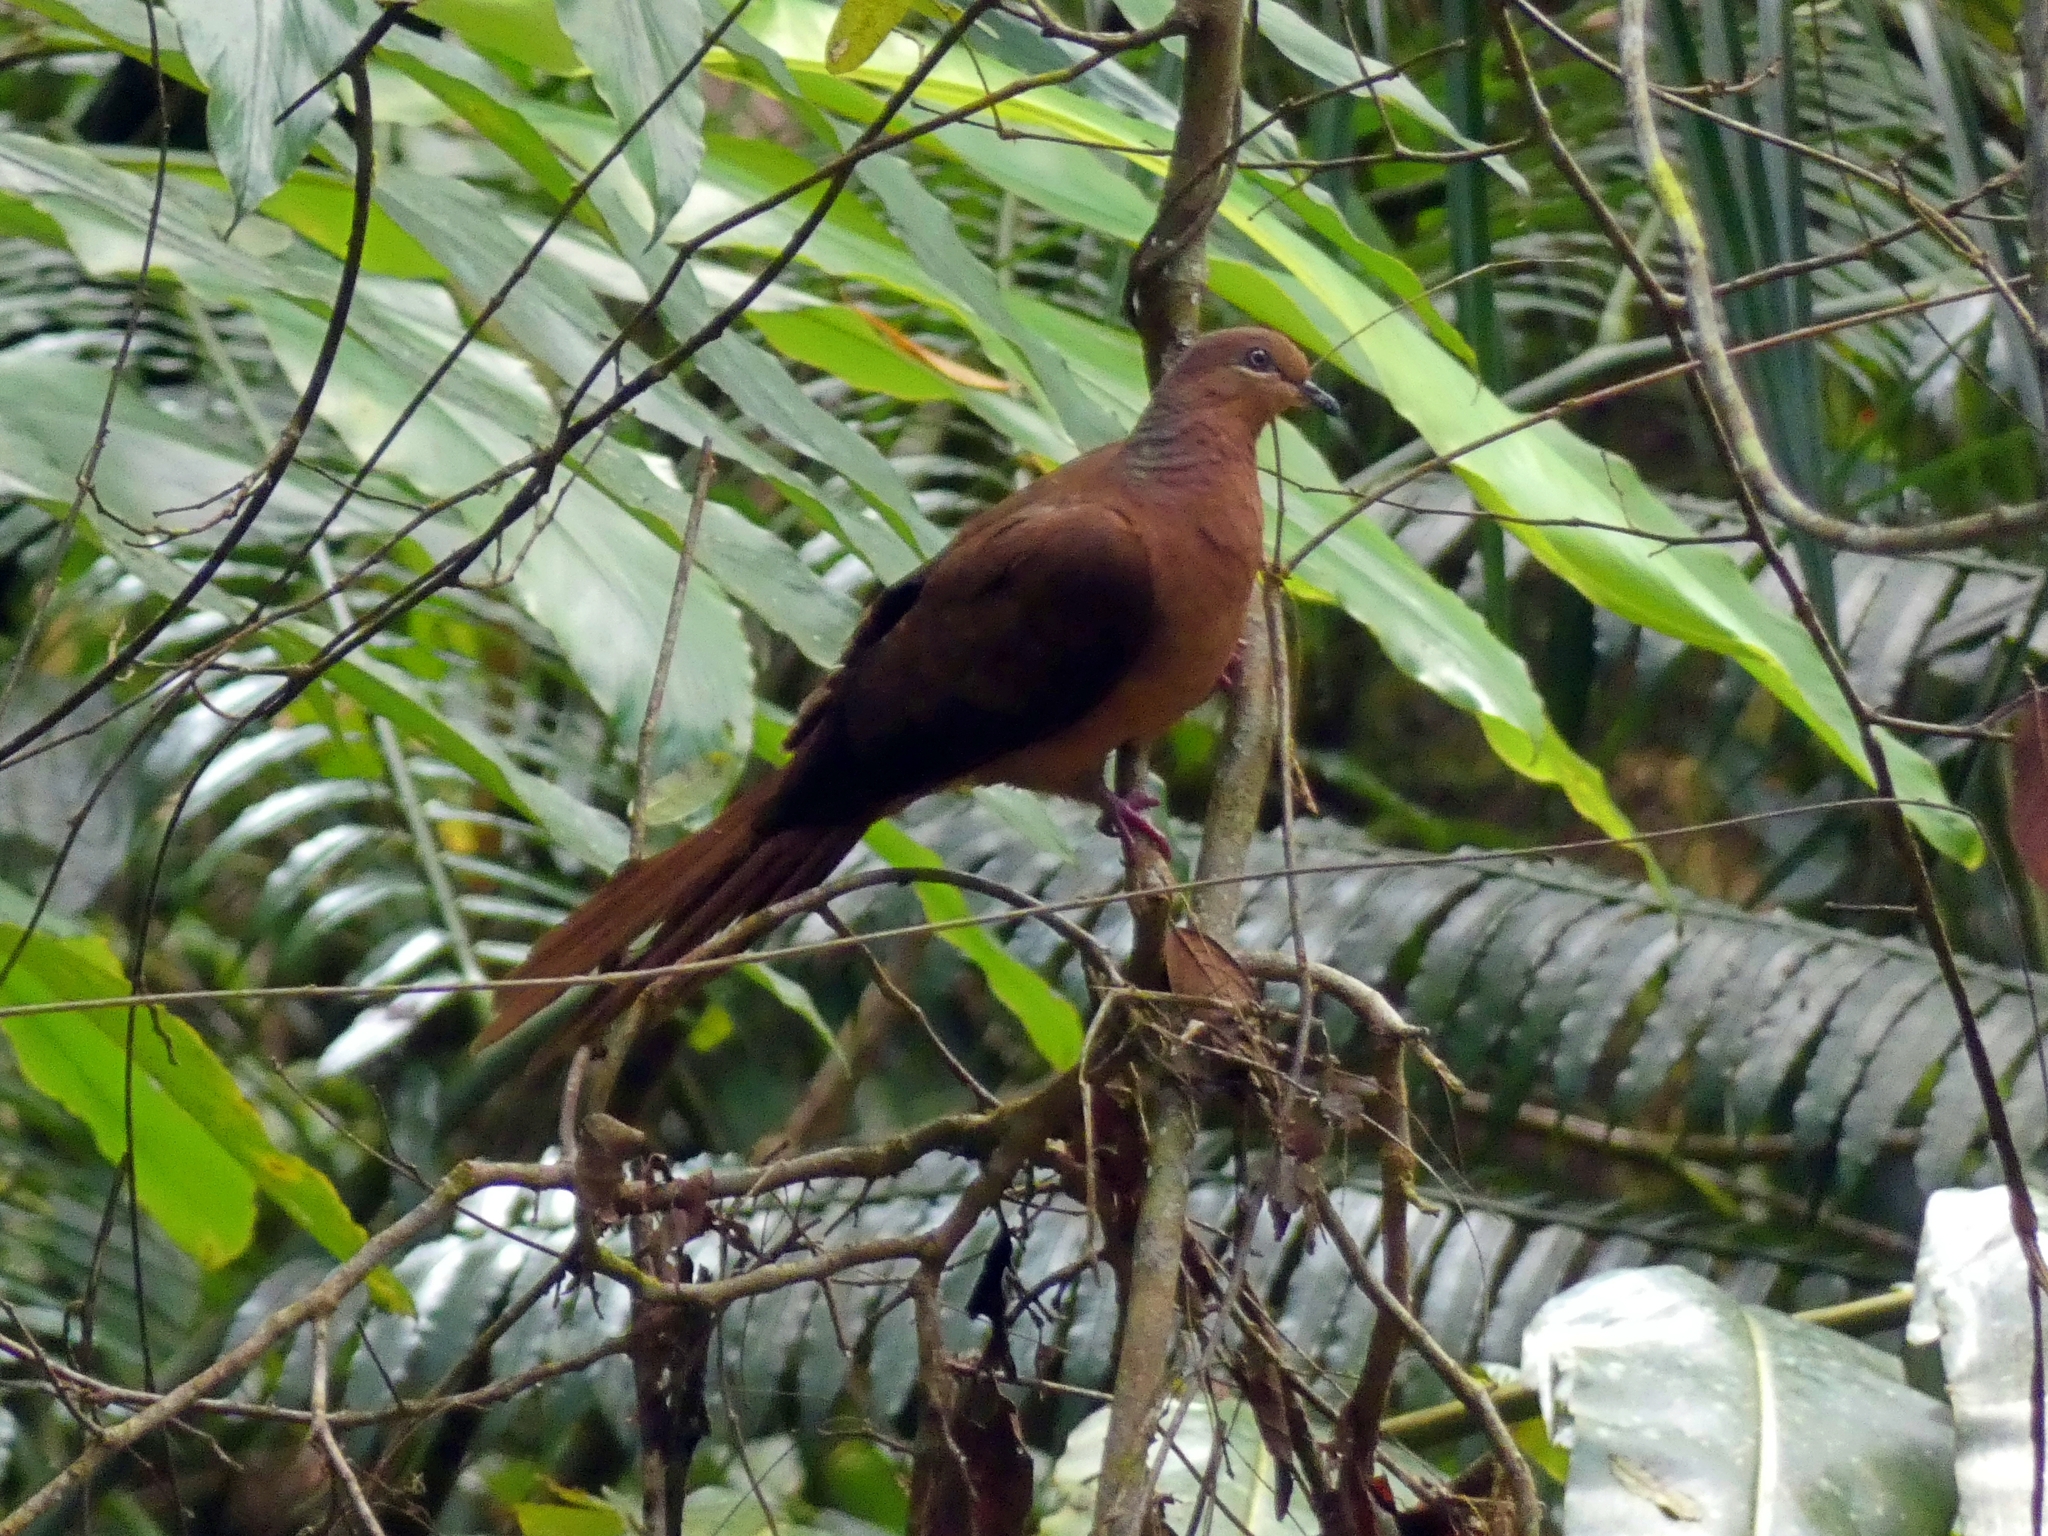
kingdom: Animalia
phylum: Chordata
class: Aves
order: Columbiformes
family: Columbidae
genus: Macropygia
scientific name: Macropygia phasianella
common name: Brown cuckoo-dove
